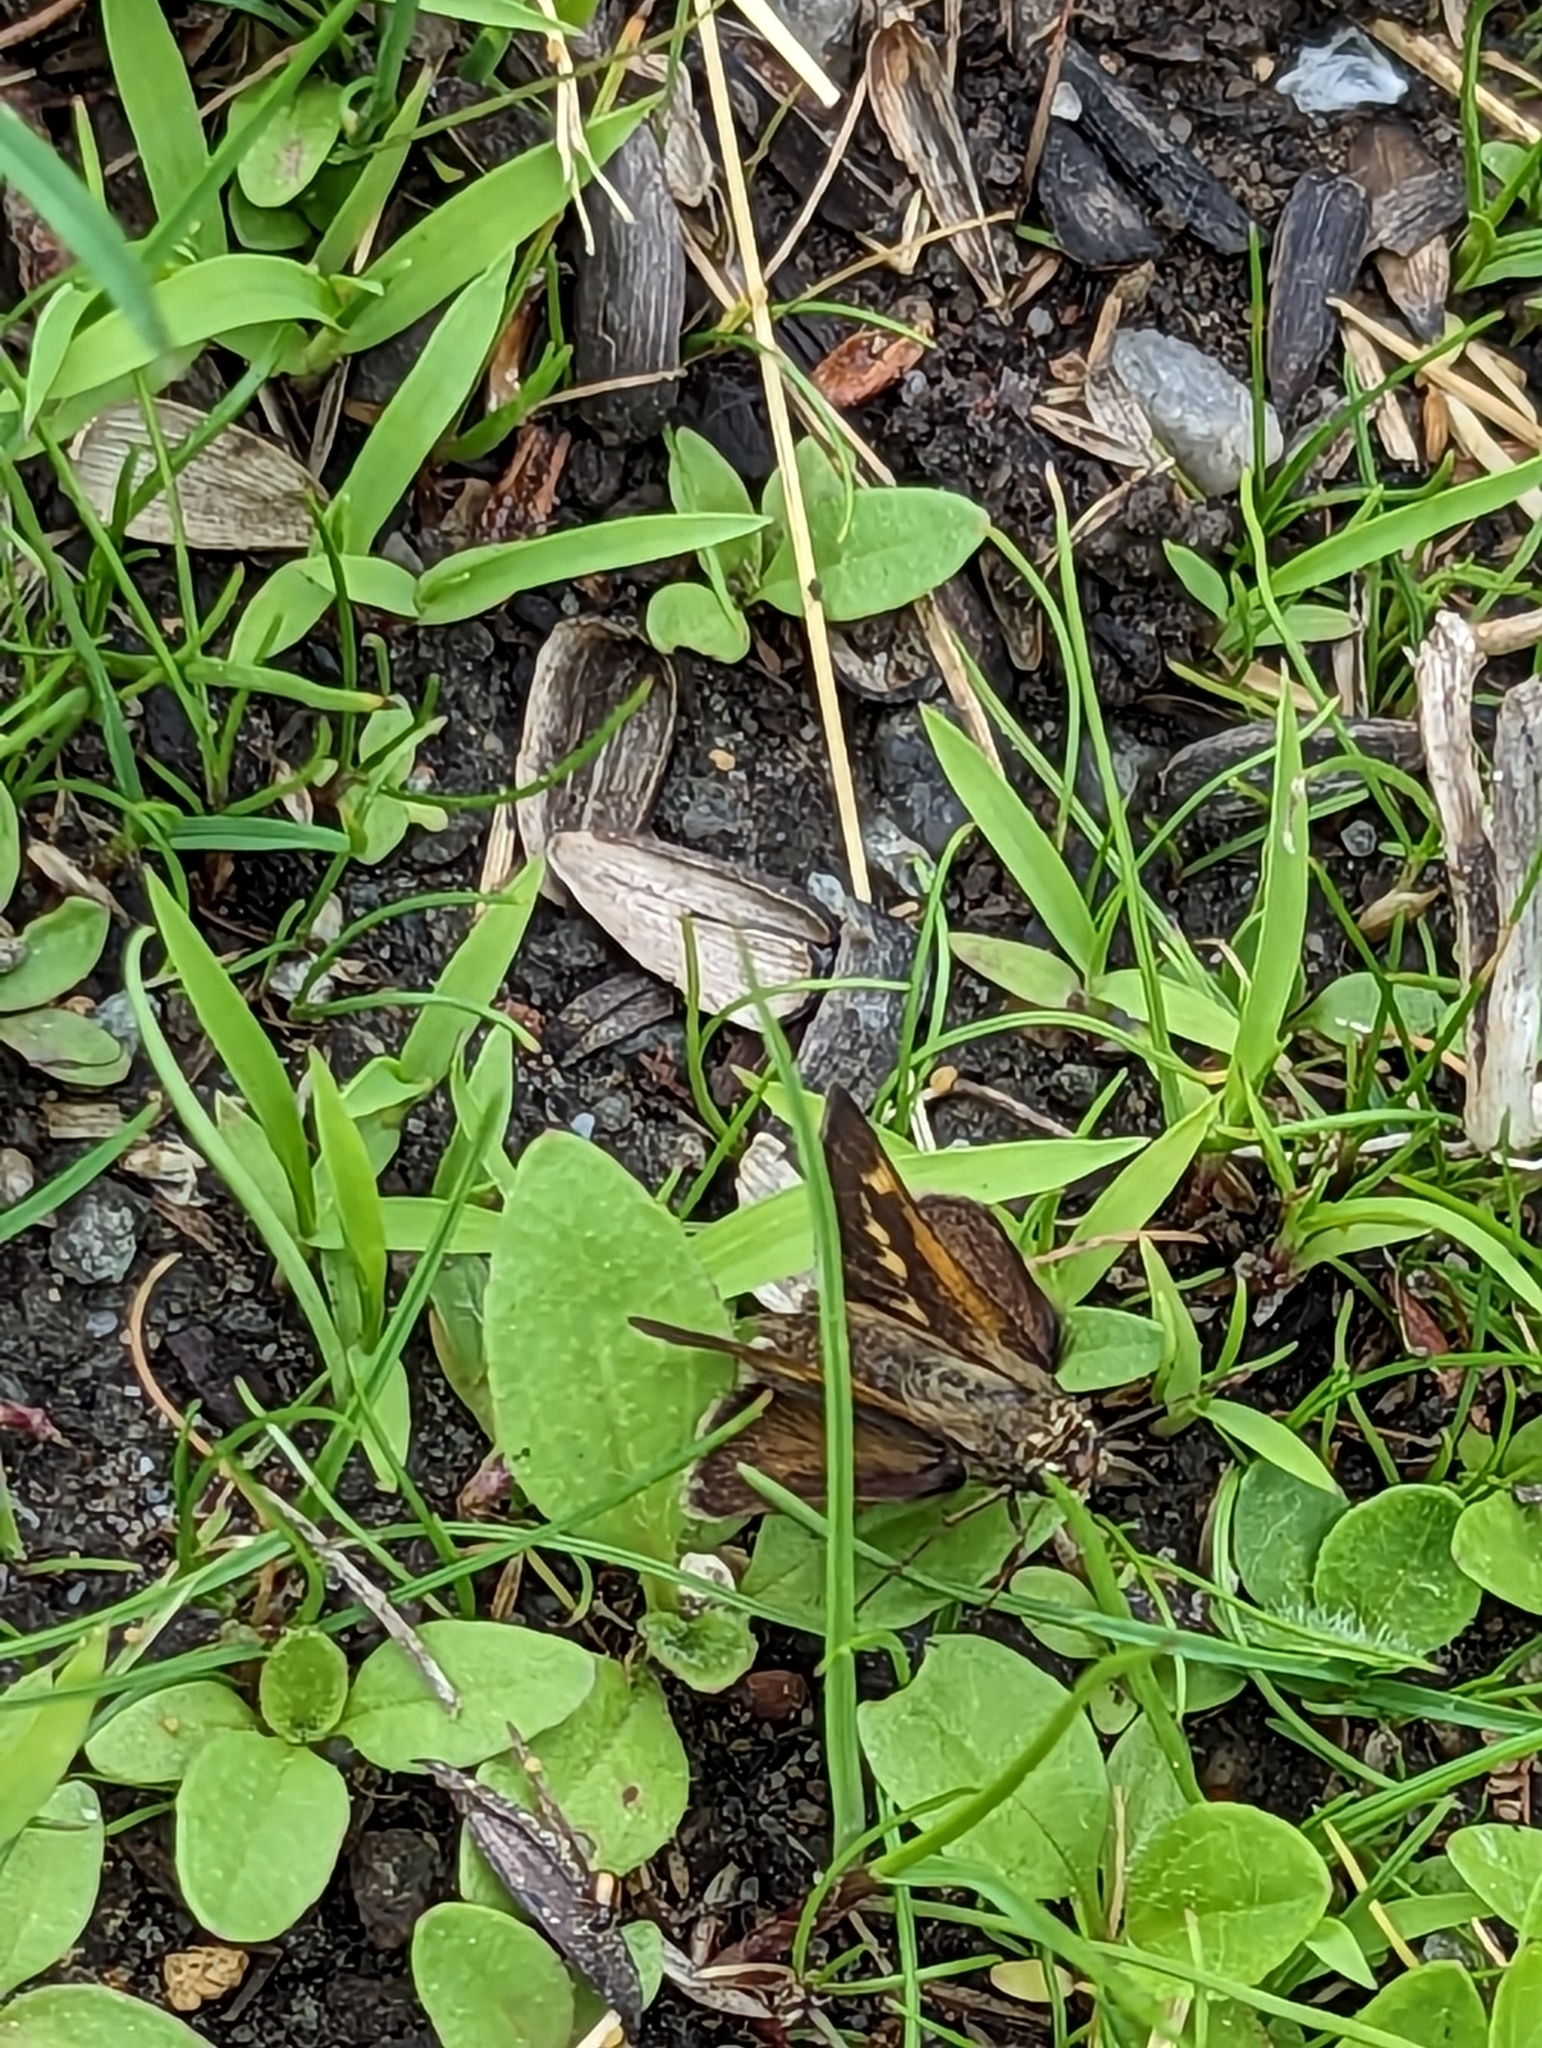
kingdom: Animalia
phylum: Arthropoda
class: Insecta
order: Lepidoptera
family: Hesperiidae
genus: Polites
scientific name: Polites origenes
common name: Crossline skipper
